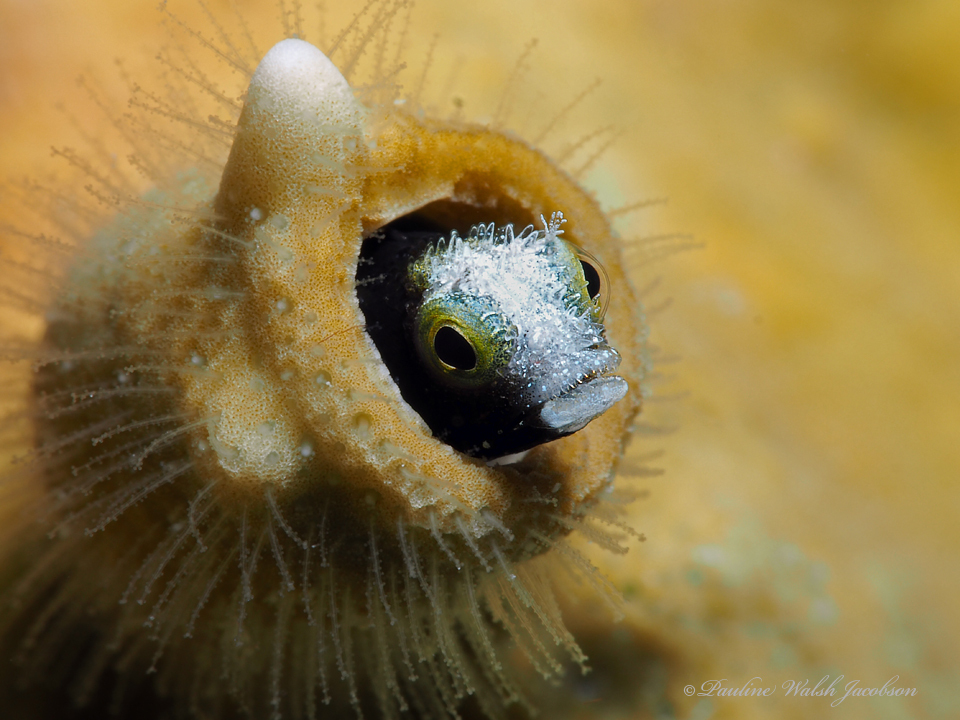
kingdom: Animalia
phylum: Chordata
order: Perciformes
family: Chaenopsidae
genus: Acanthemblemaria
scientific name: Acanthemblemaria spinosa
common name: Spinyhead blenny
